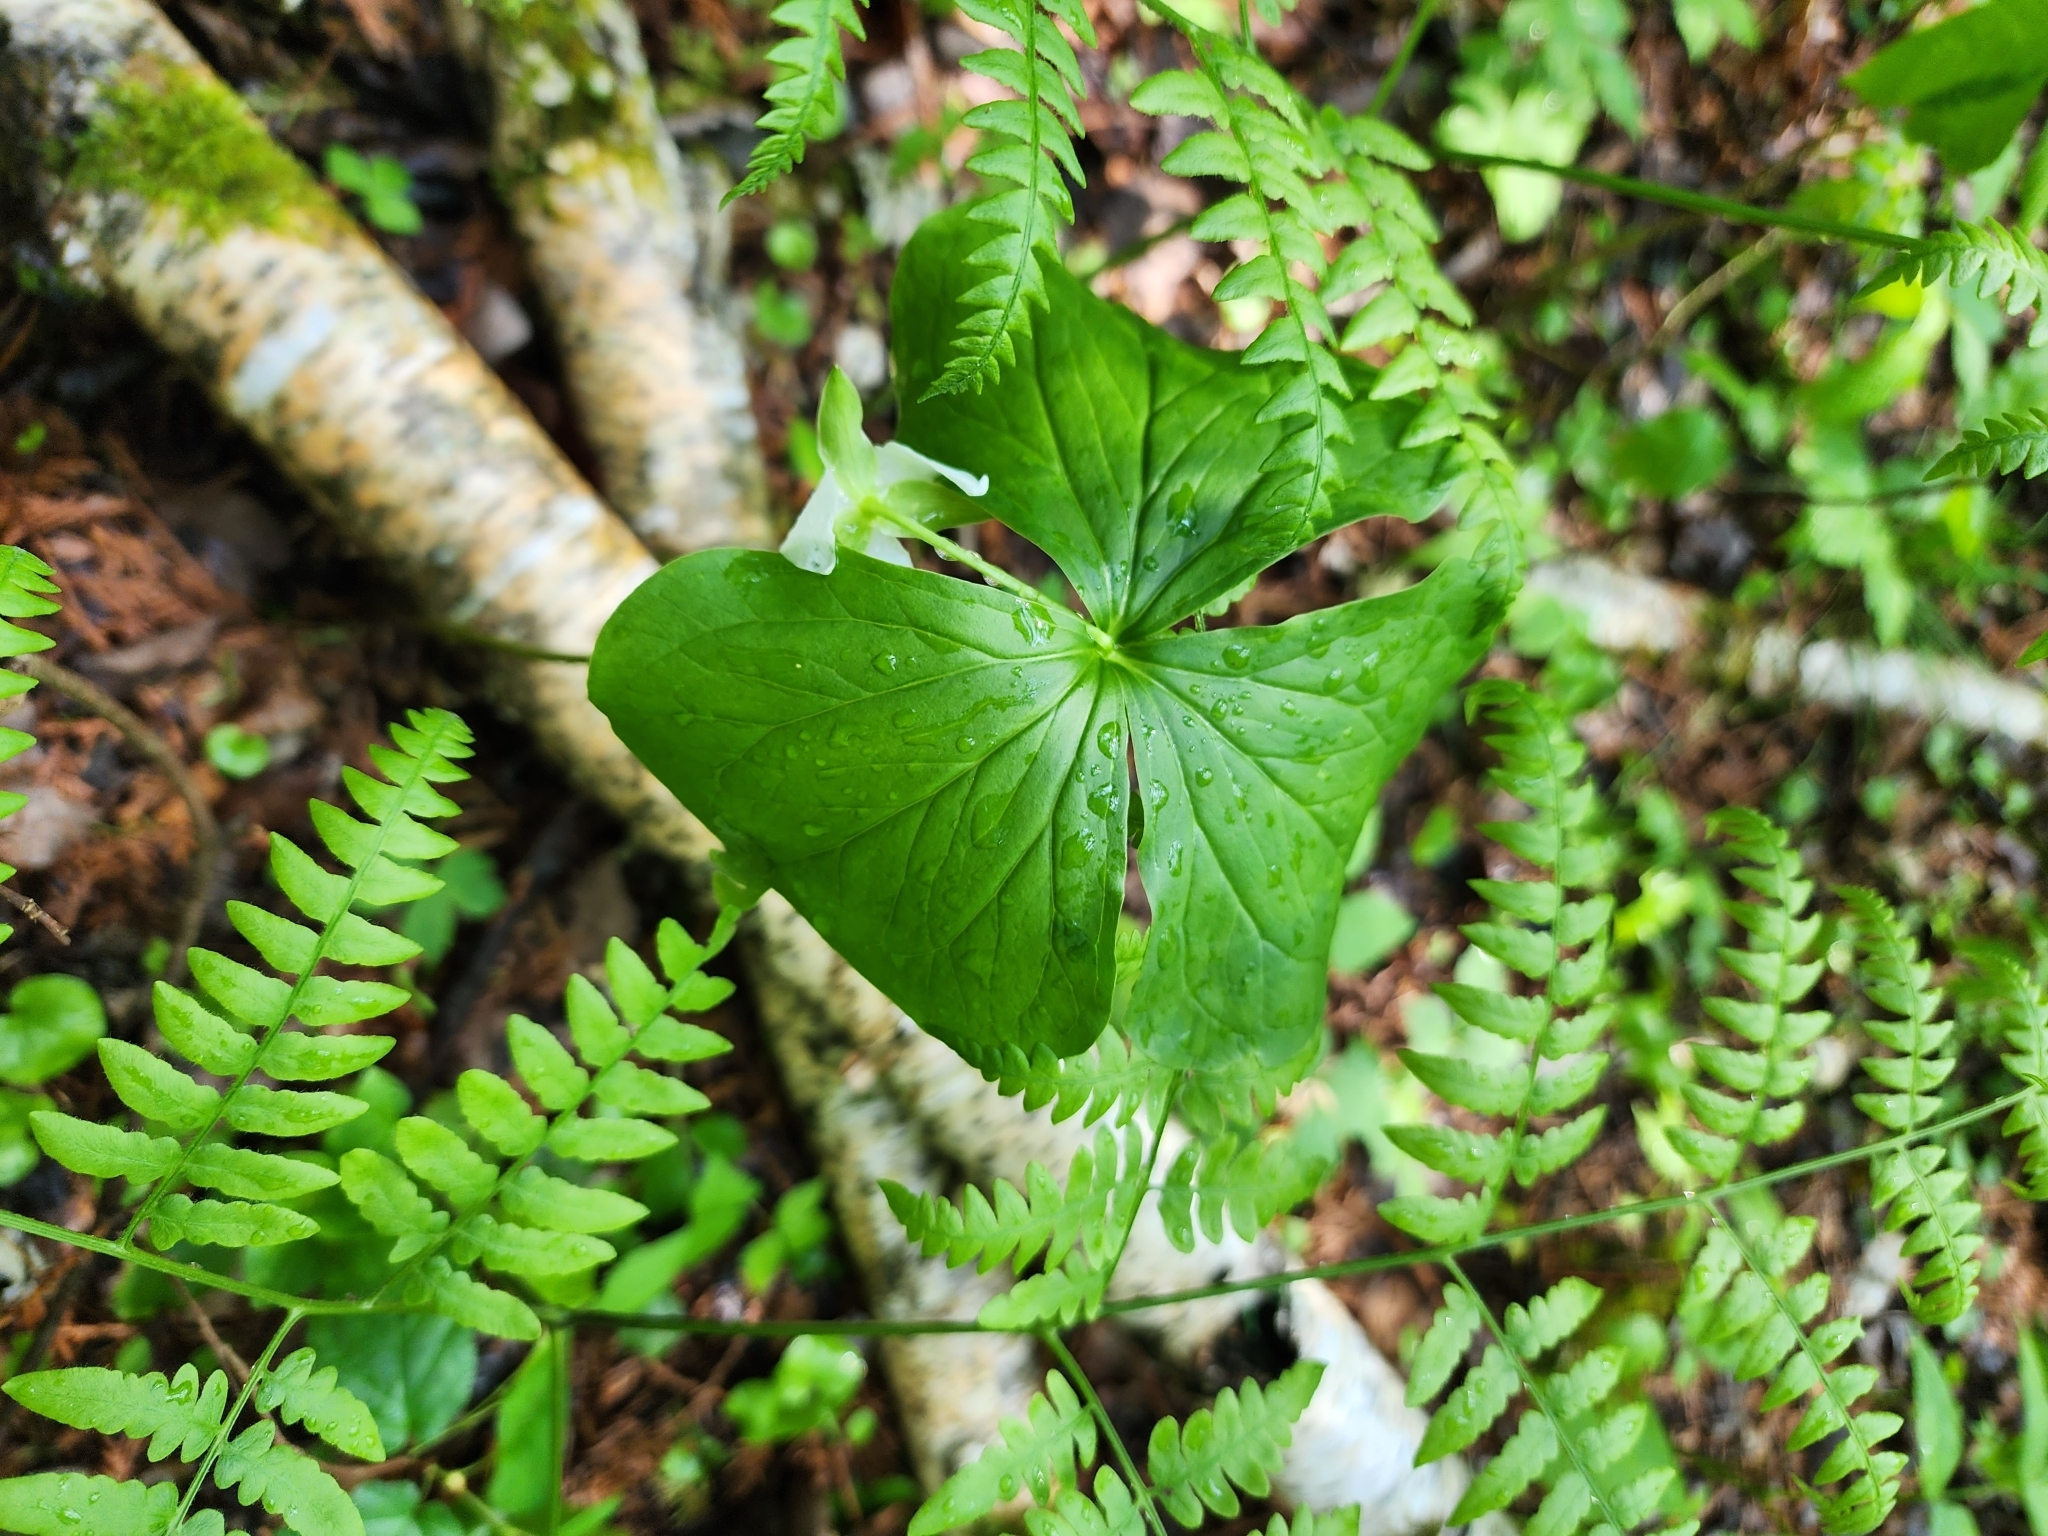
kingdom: Plantae
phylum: Tracheophyta
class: Liliopsida
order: Liliales
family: Melanthiaceae
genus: Trillium
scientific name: Trillium cernuum
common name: Nodding trillium
